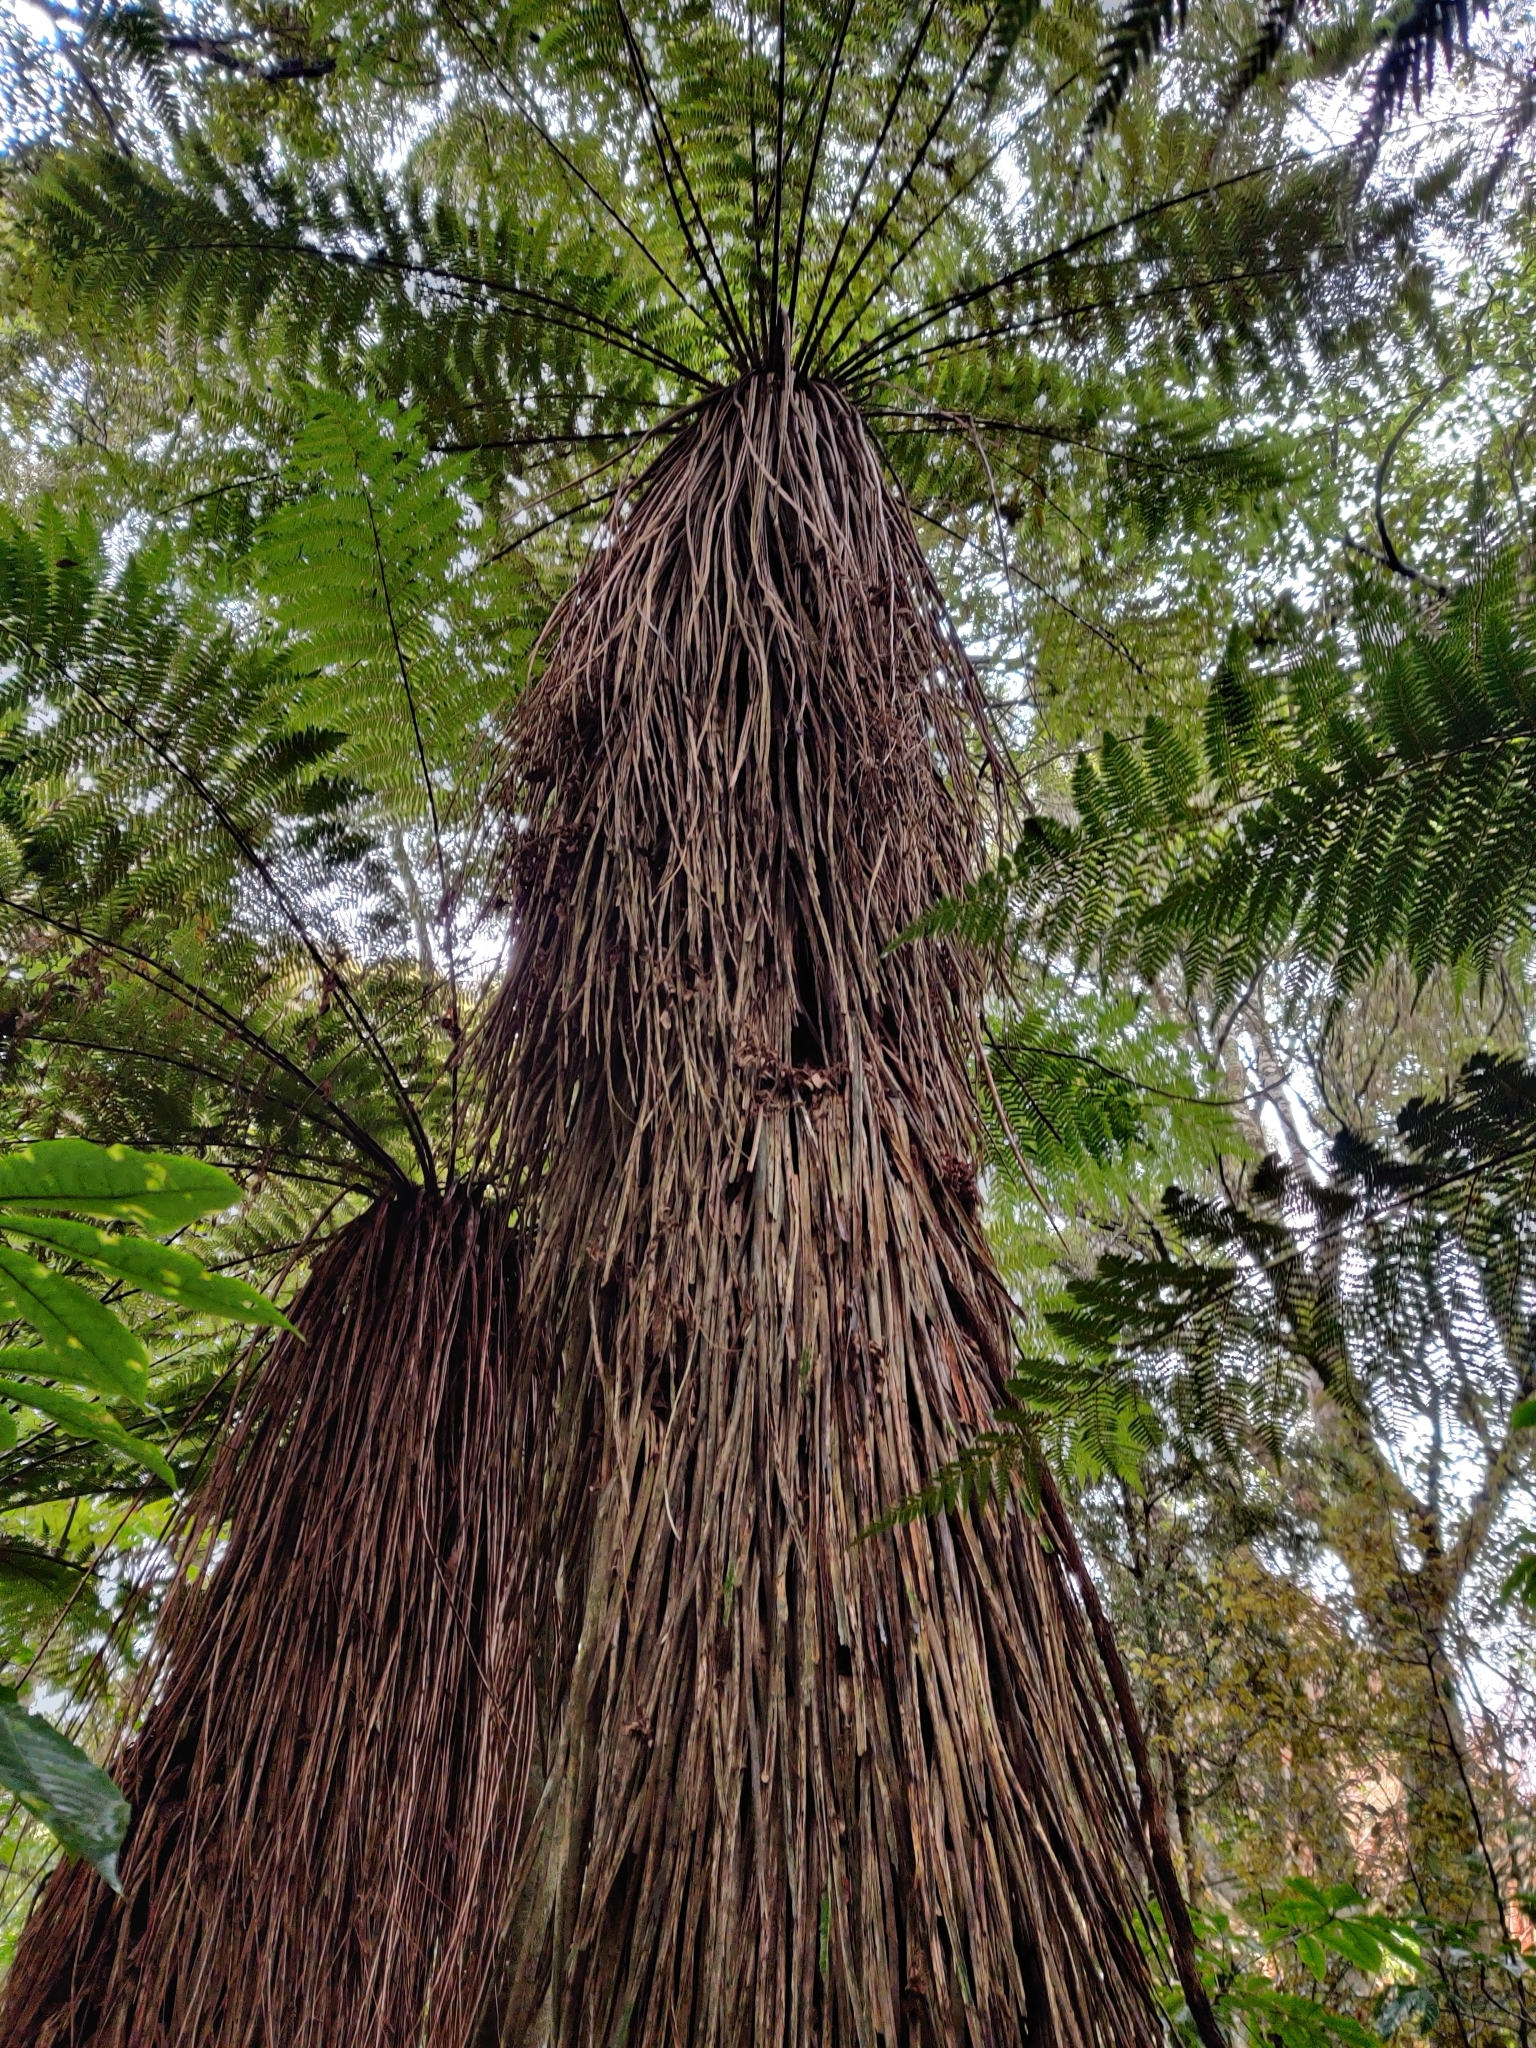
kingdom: Plantae
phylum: Tracheophyta
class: Polypodiopsida
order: Cyatheales
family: Cyatheaceae
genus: Alsophila
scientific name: Alsophila smithii
